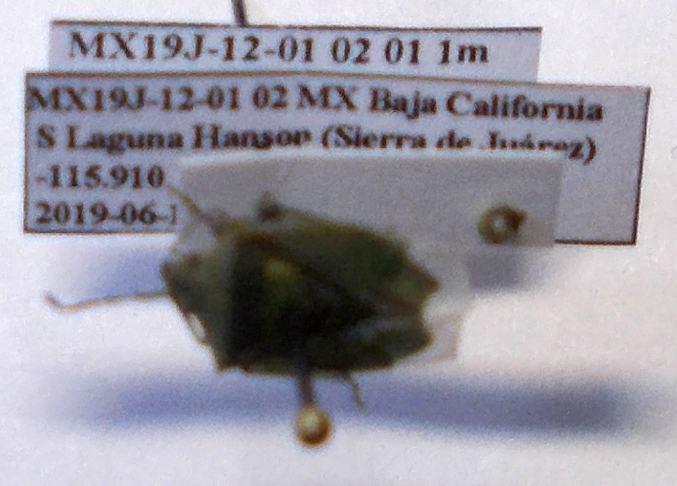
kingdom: Animalia
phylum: Arthropoda
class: Insecta
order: Hemiptera
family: Pentatomidae
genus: Thyanta
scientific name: Thyanta custator
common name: Stink bug
